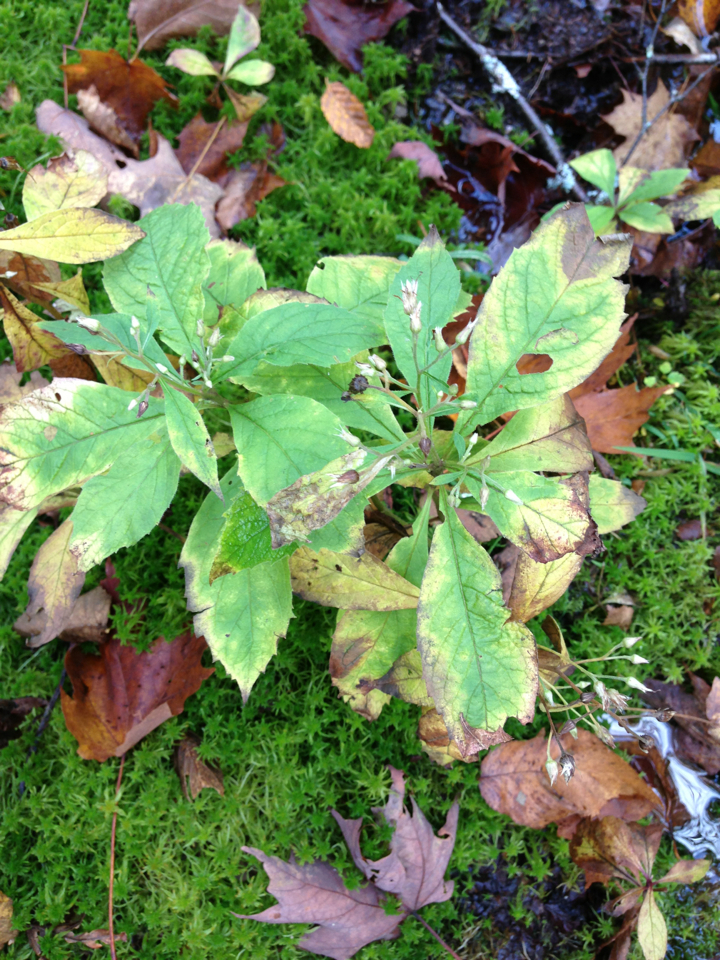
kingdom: Plantae
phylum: Tracheophyta
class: Magnoliopsida
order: Asterales
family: Asteraceae
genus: Oclemena
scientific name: Oclemena acuminata
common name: Mountain aster
